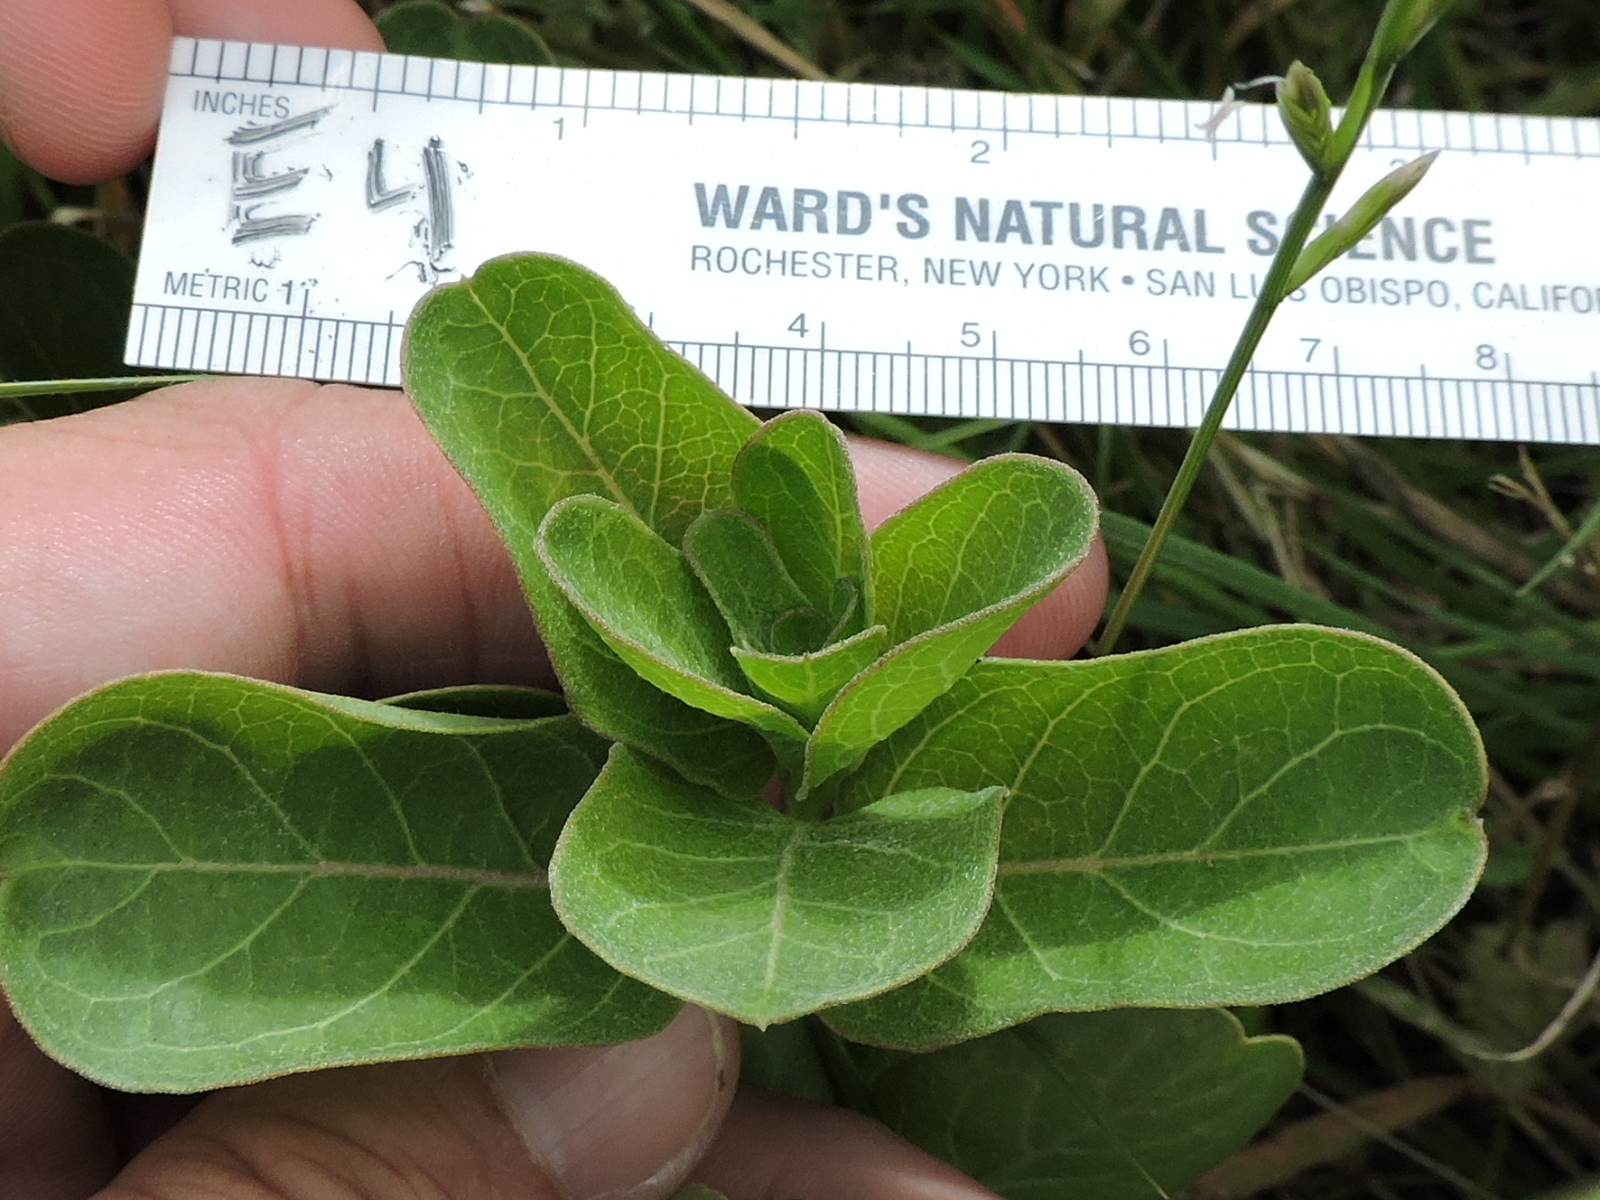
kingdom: Plantae
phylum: Tracheophyta
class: Magnoliopsida
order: Gentianales
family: Apocynaceae
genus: Asclepias
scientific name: Asclepias viridis
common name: Antelope-horns
